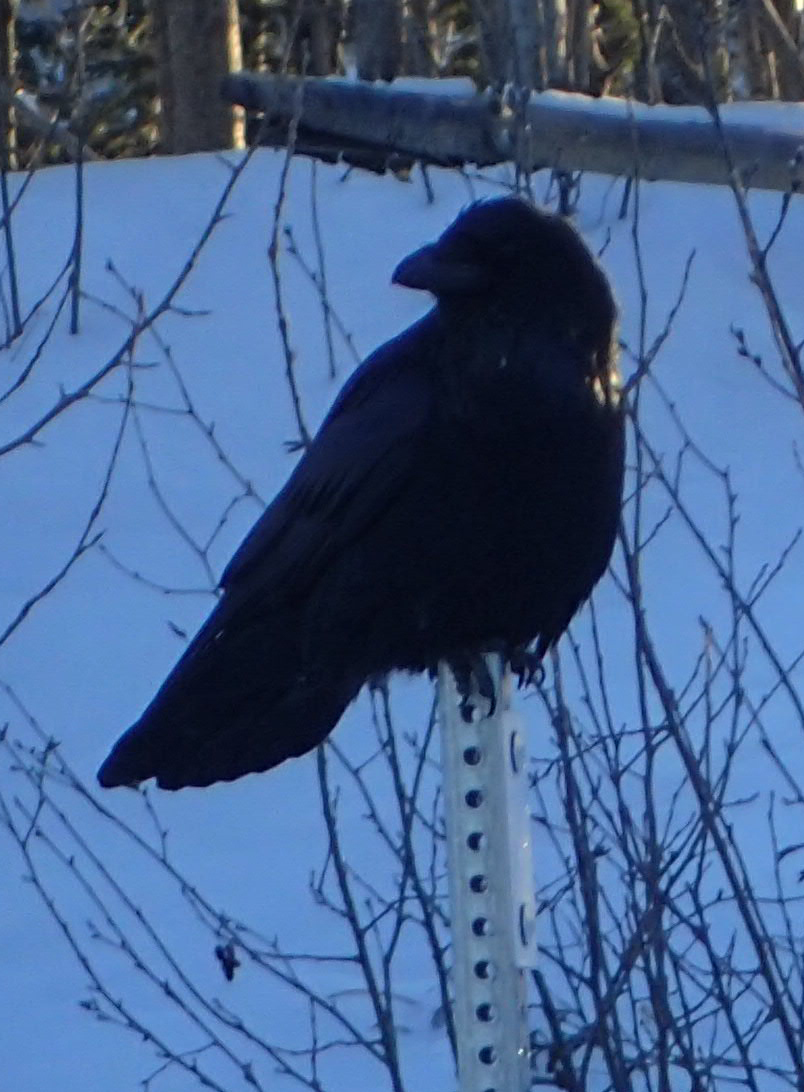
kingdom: Animalia
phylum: Chordata
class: Aves
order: Passeriformes
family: Corvidae
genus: Corvus
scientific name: Corvus corax
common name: Common raven
